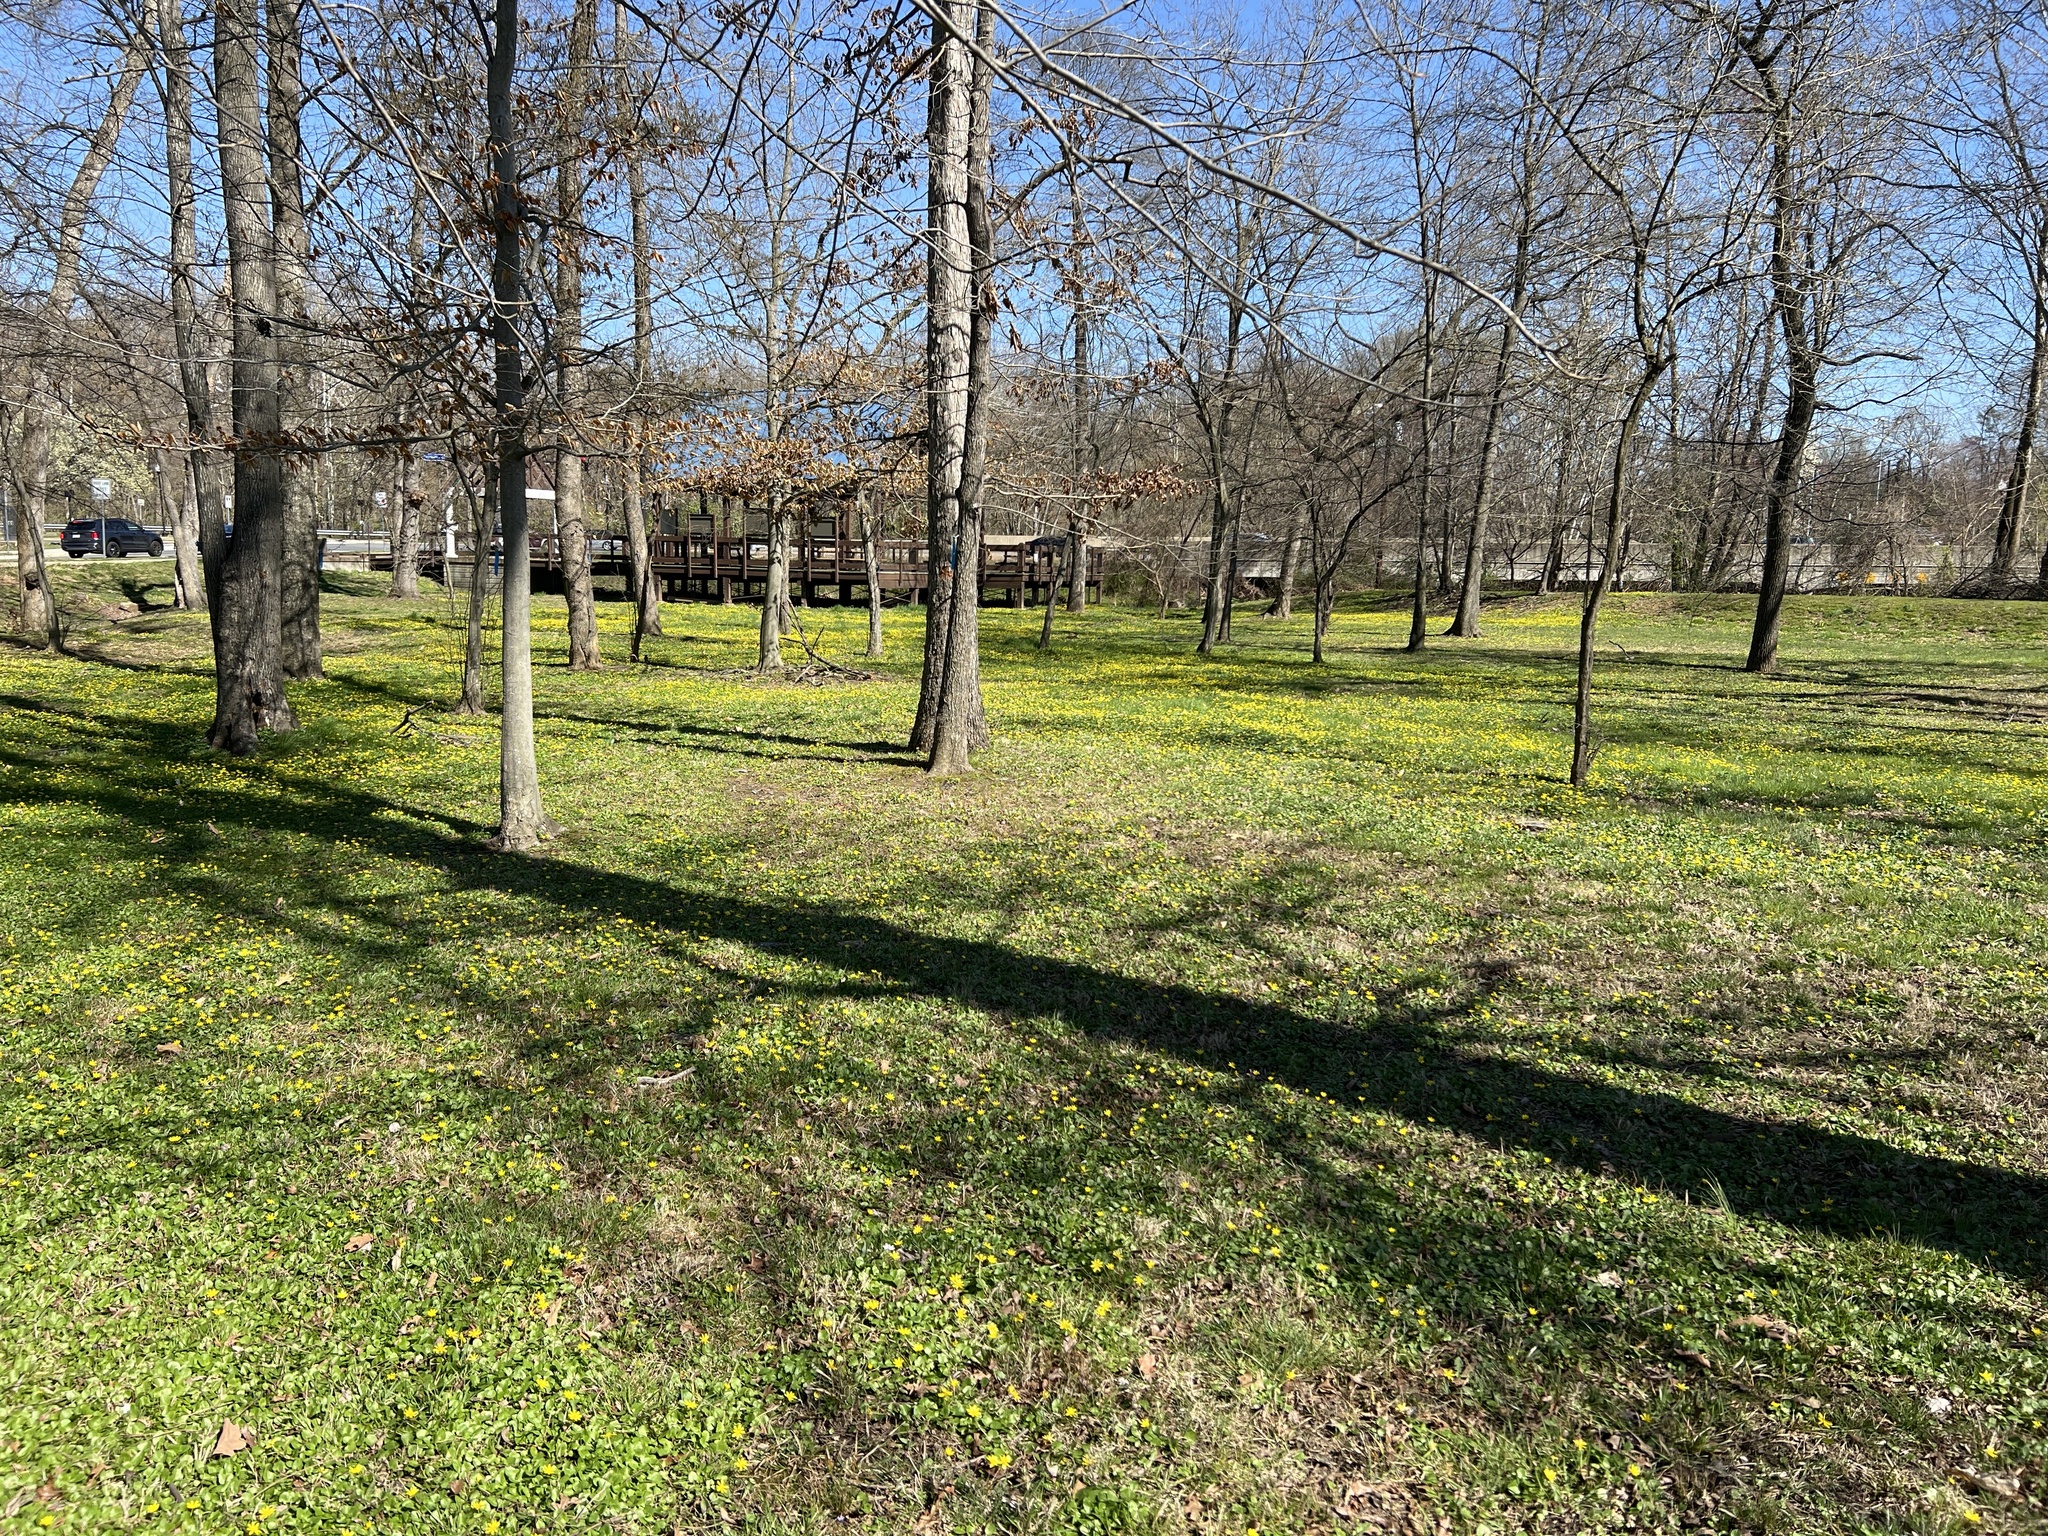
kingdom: Plantae
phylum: Tracheophyta
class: Magnoliopsida
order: Ranunculales
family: Ranunculaceae
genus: Ficaria
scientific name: Ficaria verna
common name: Lesser celandine
